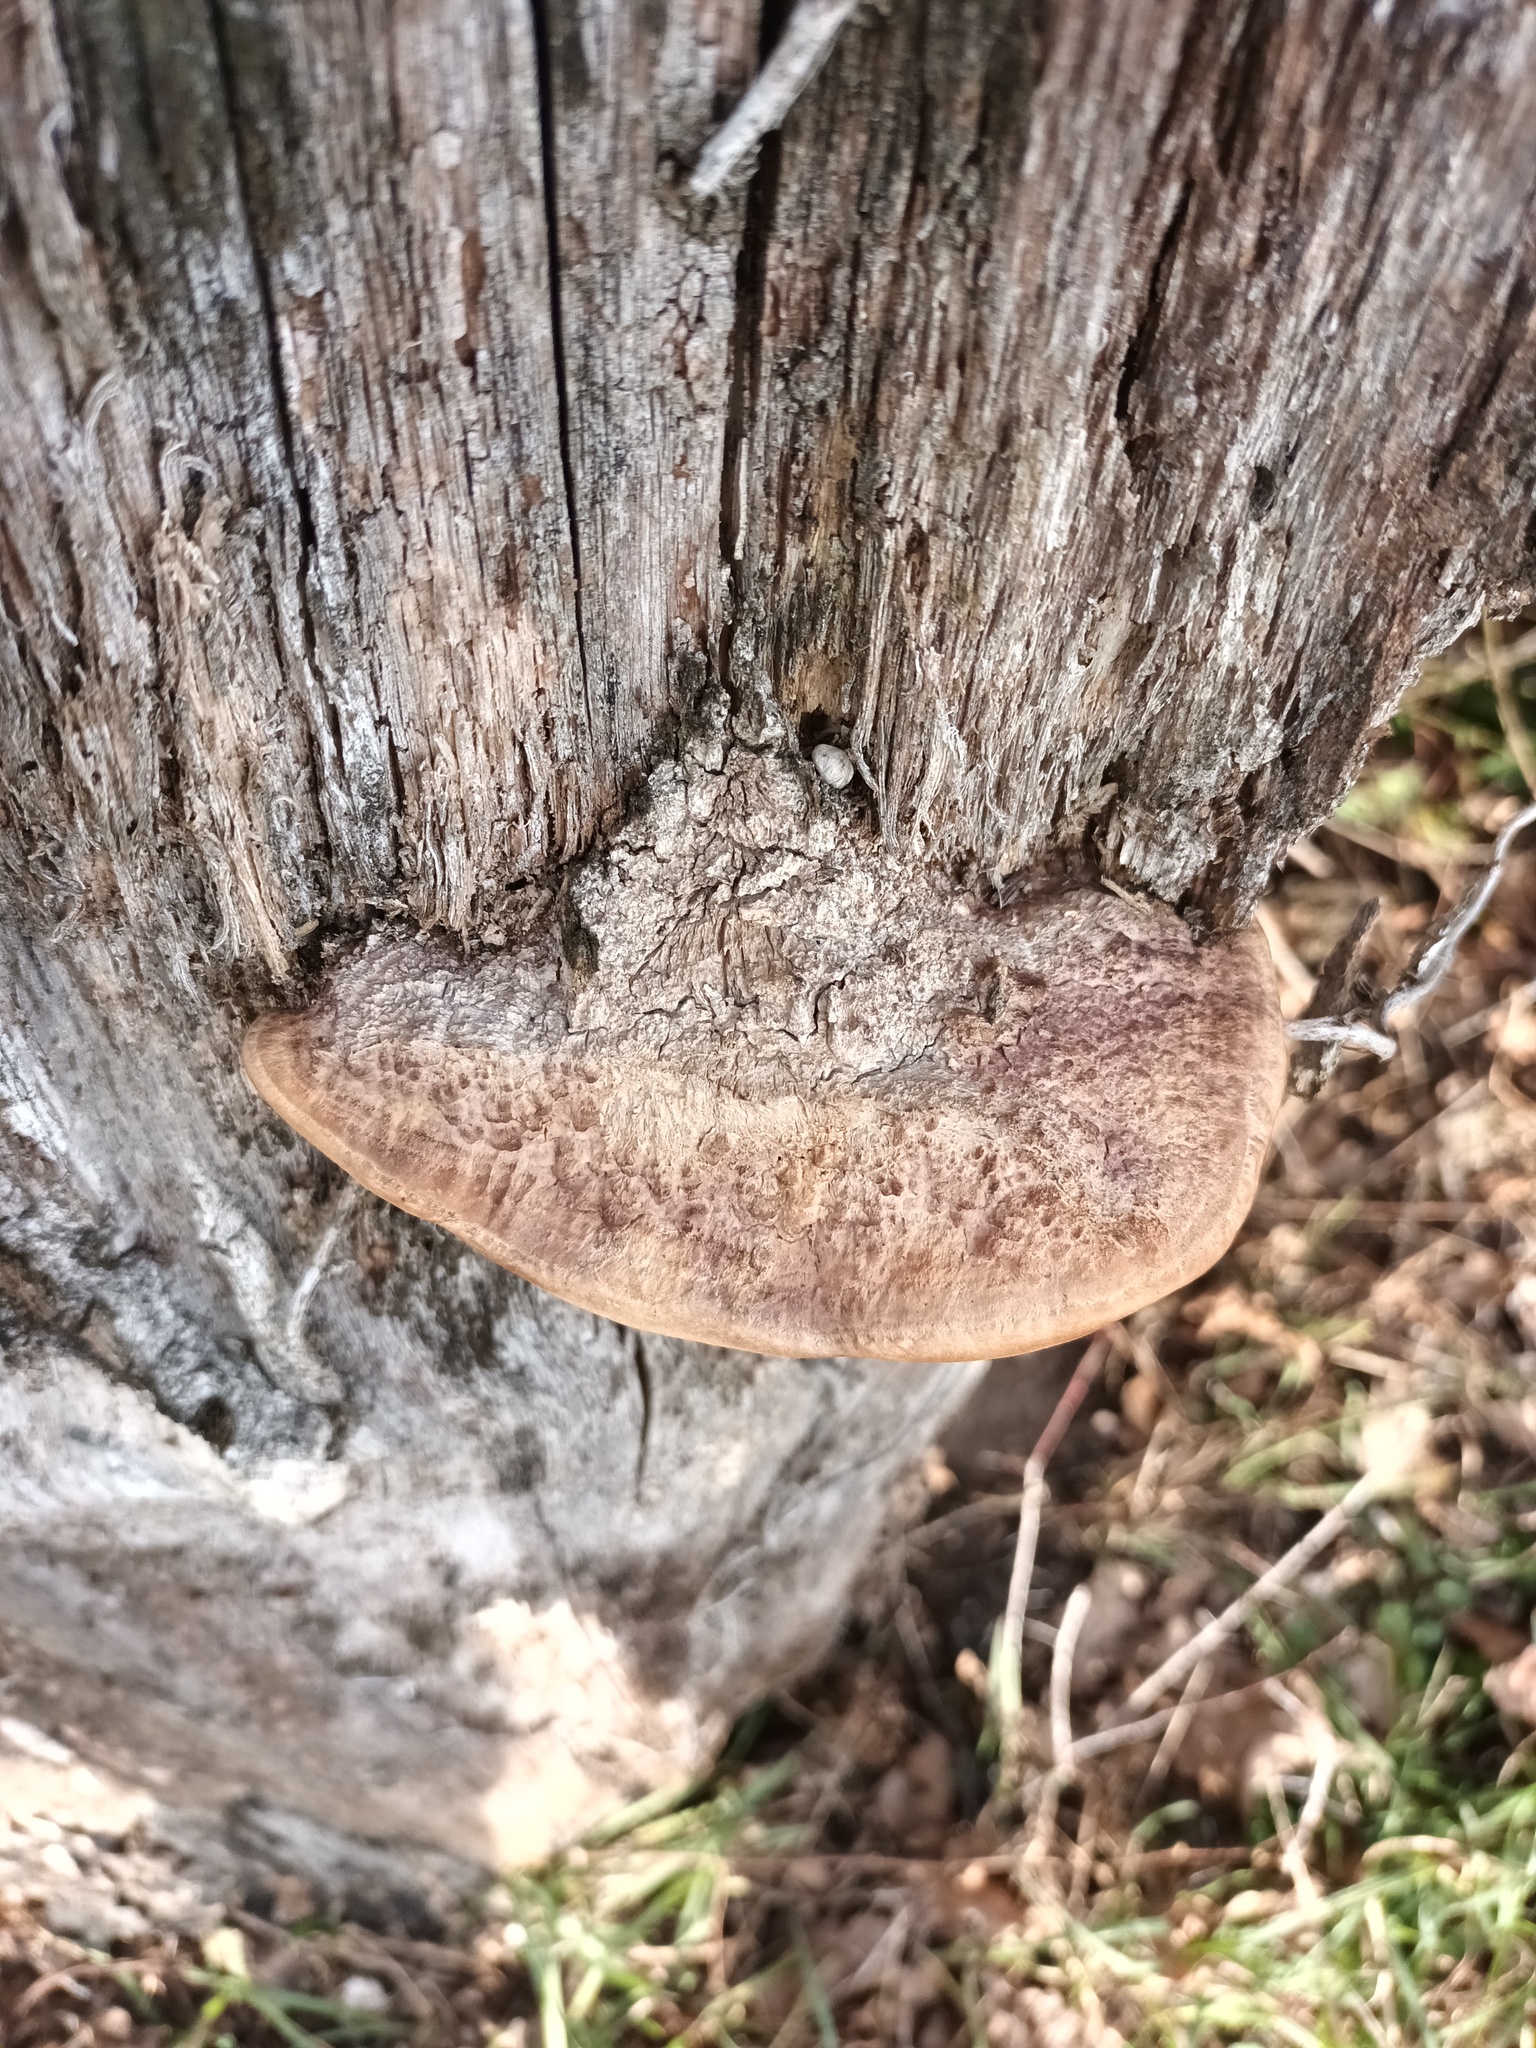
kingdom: Fungi
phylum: Basidiomycota
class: Agaricomycetes
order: Polyporales
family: Fomitopsidaceae
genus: Fomitopsis
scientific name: Fomitopsis
